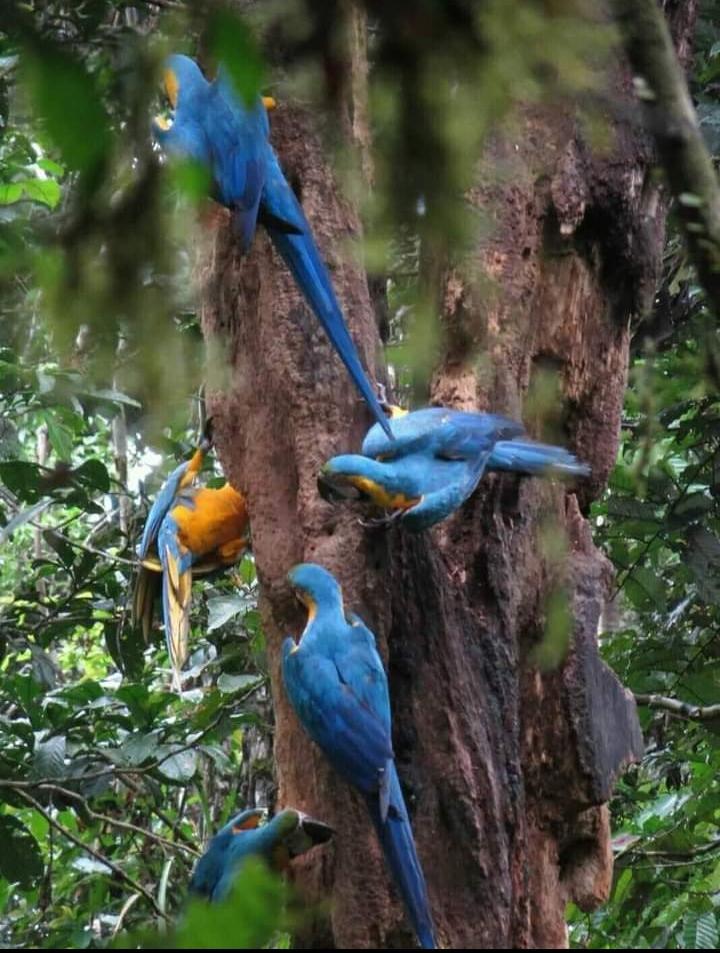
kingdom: Animalia
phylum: Chordata
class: Aves
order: Psittaciformes
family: Psittacidae
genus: Ara
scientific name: Ara ararauna
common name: Blue-and-yellow macaw
